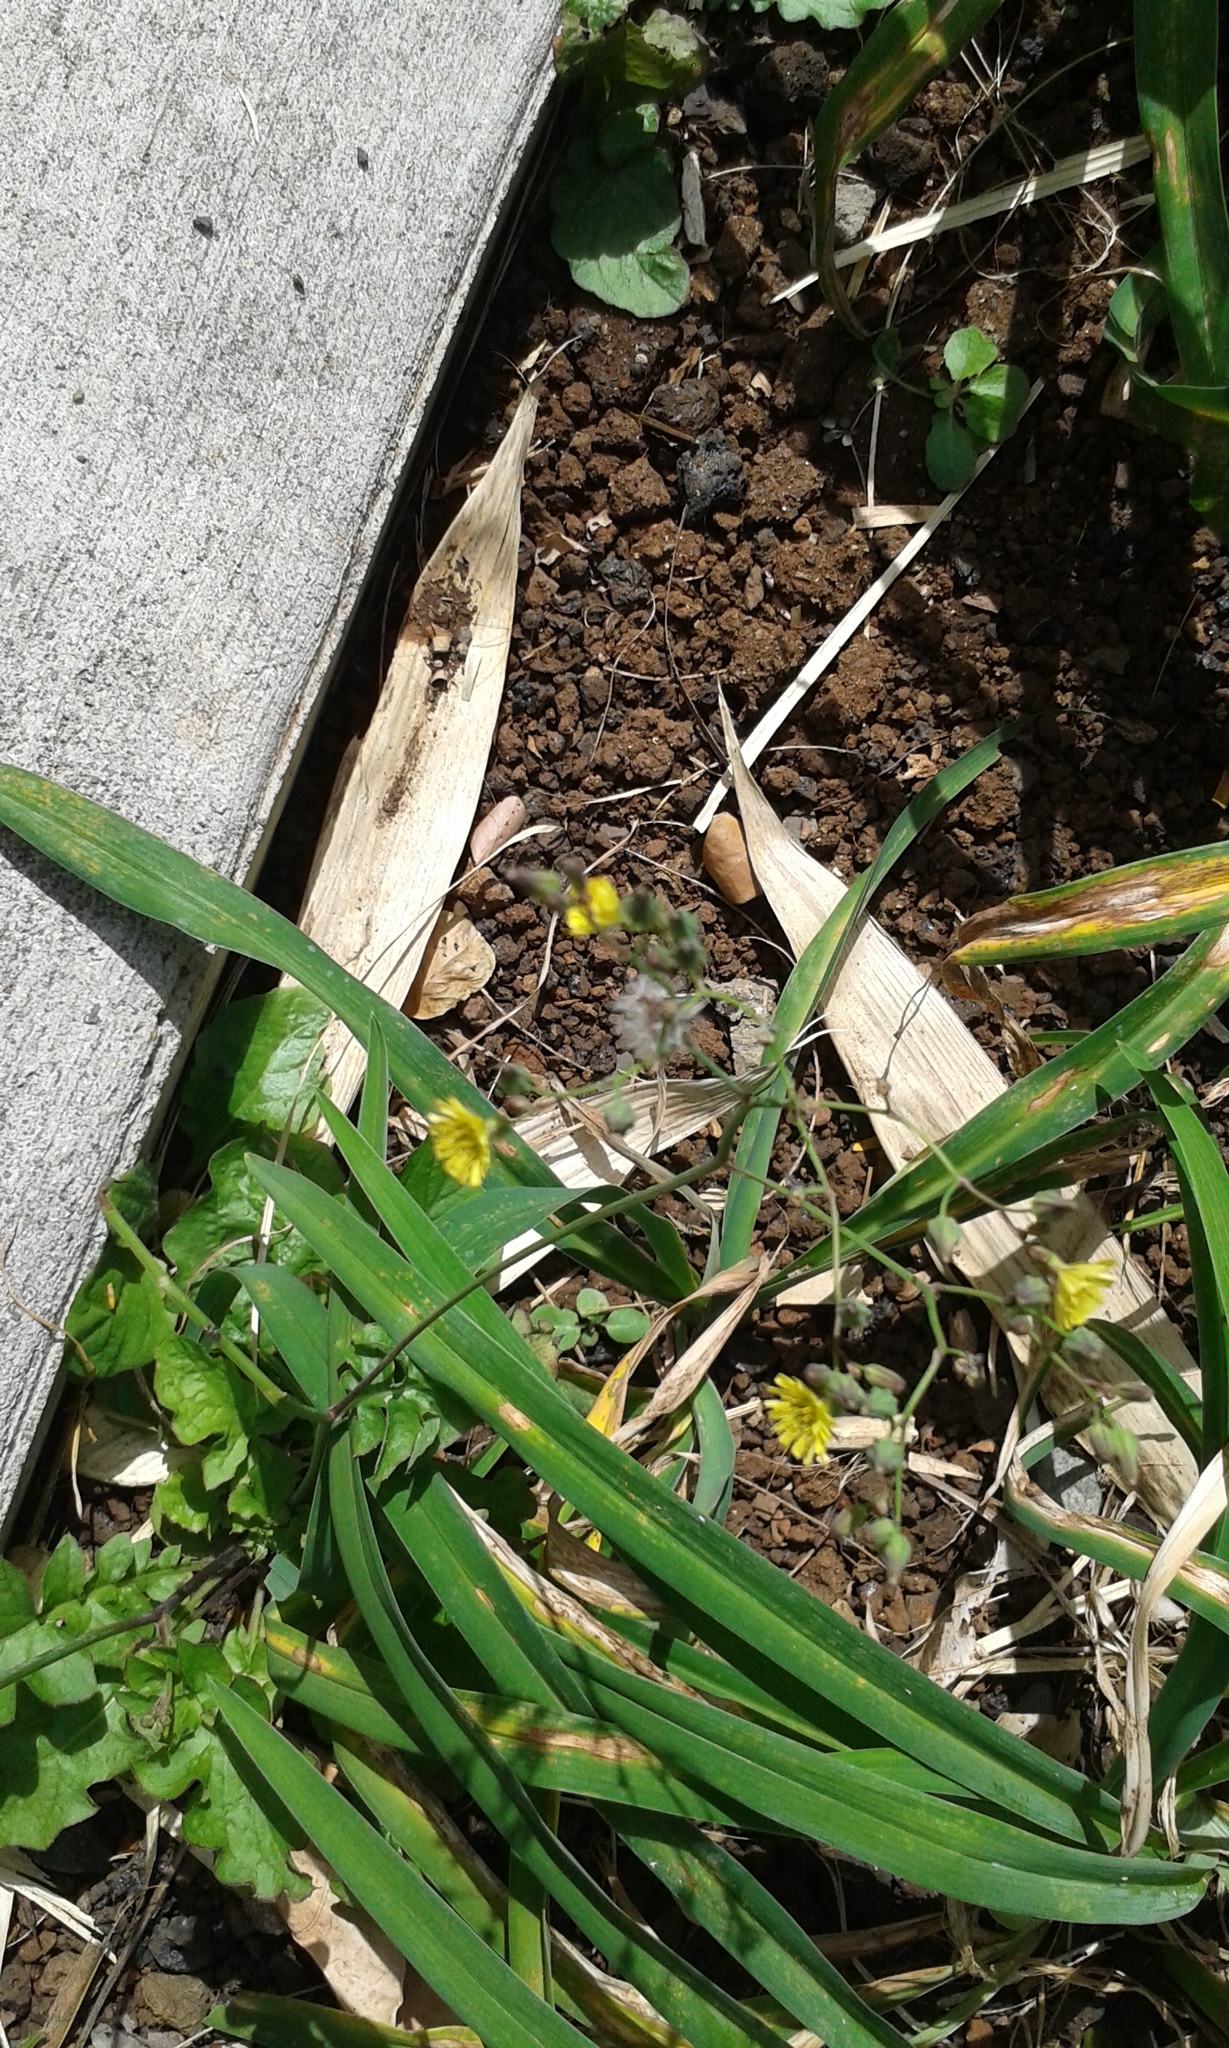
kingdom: Plantae
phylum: Tracheophyta
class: Magnoliopsida
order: Asterales
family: Asteraceae
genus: Youngia
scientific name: Youngia japonica
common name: Oriental false hawksbeard
